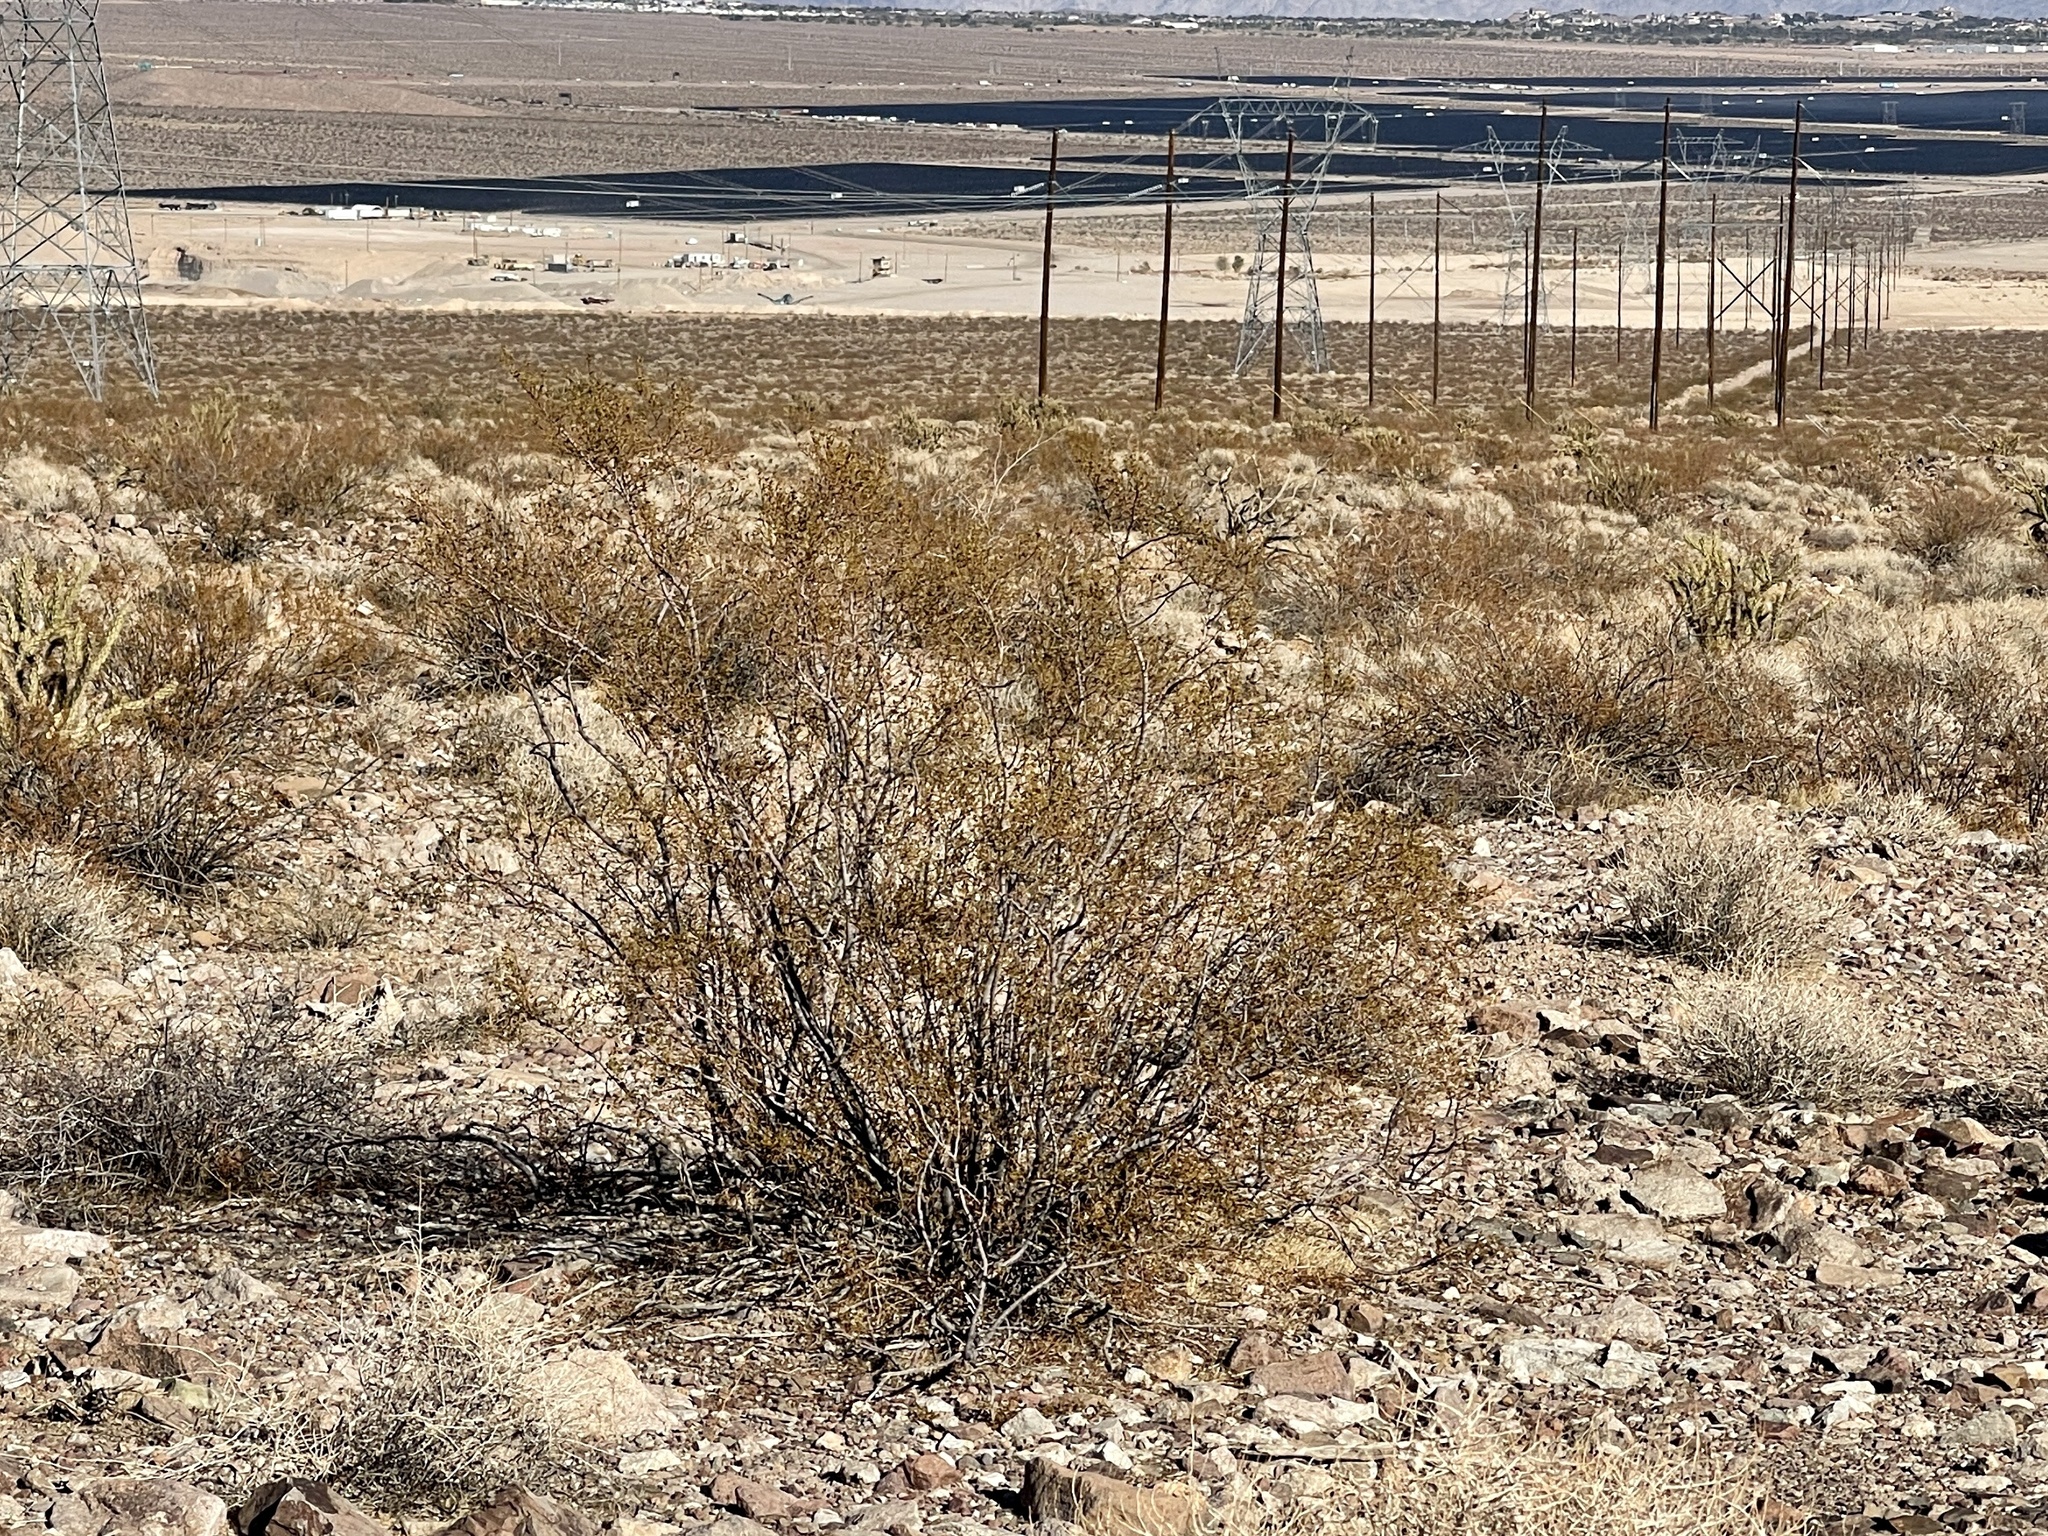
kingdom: Plantae
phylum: Tracheophyta
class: Magnoliopsida
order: Zygophyllales
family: Zygophyllaceae
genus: Larrea
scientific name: Larrea tridentata
